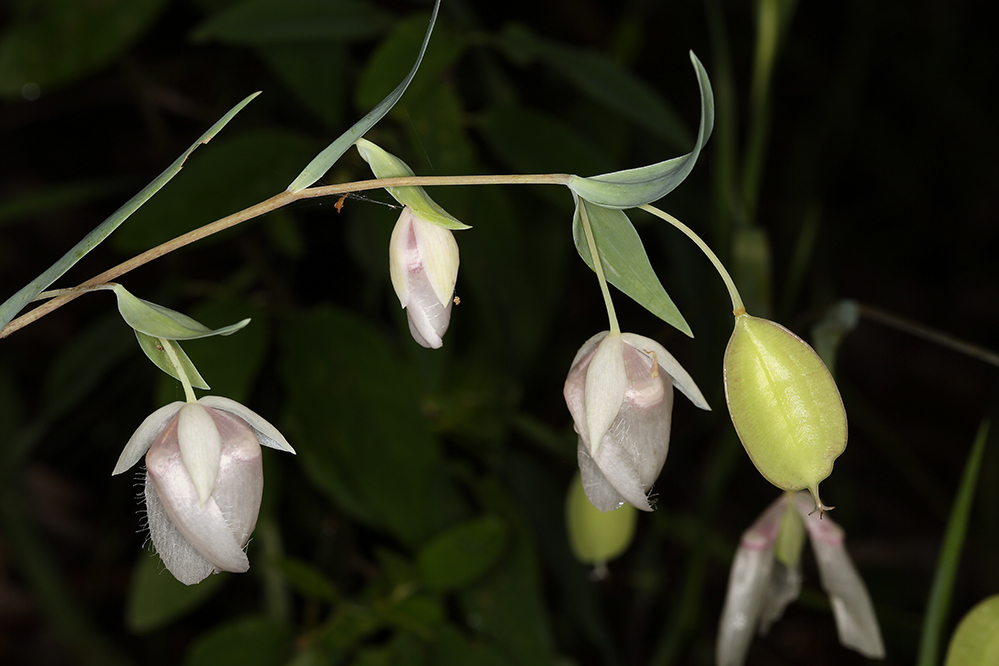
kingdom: Plantae
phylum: Tracheophyta
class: Liliopsida
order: Liliales
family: Liliaceae
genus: Calochortus
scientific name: Calochortus albus
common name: Fairy-lantern
